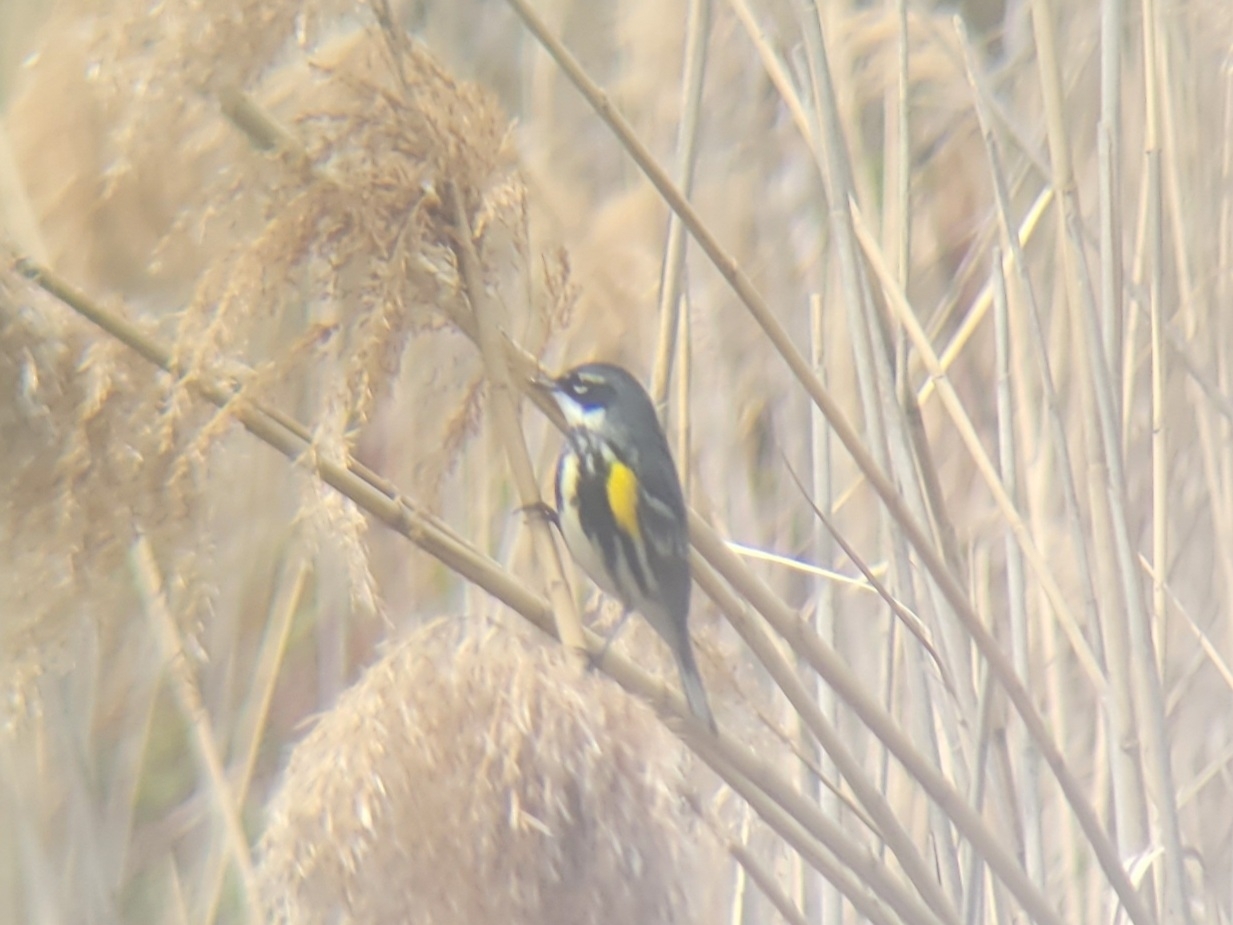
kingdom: Animalia
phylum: Chordata
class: Aves
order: Passeriformes
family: Parulidae
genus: Setophaga
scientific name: Setophaga coronata
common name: Myrtle warbler
